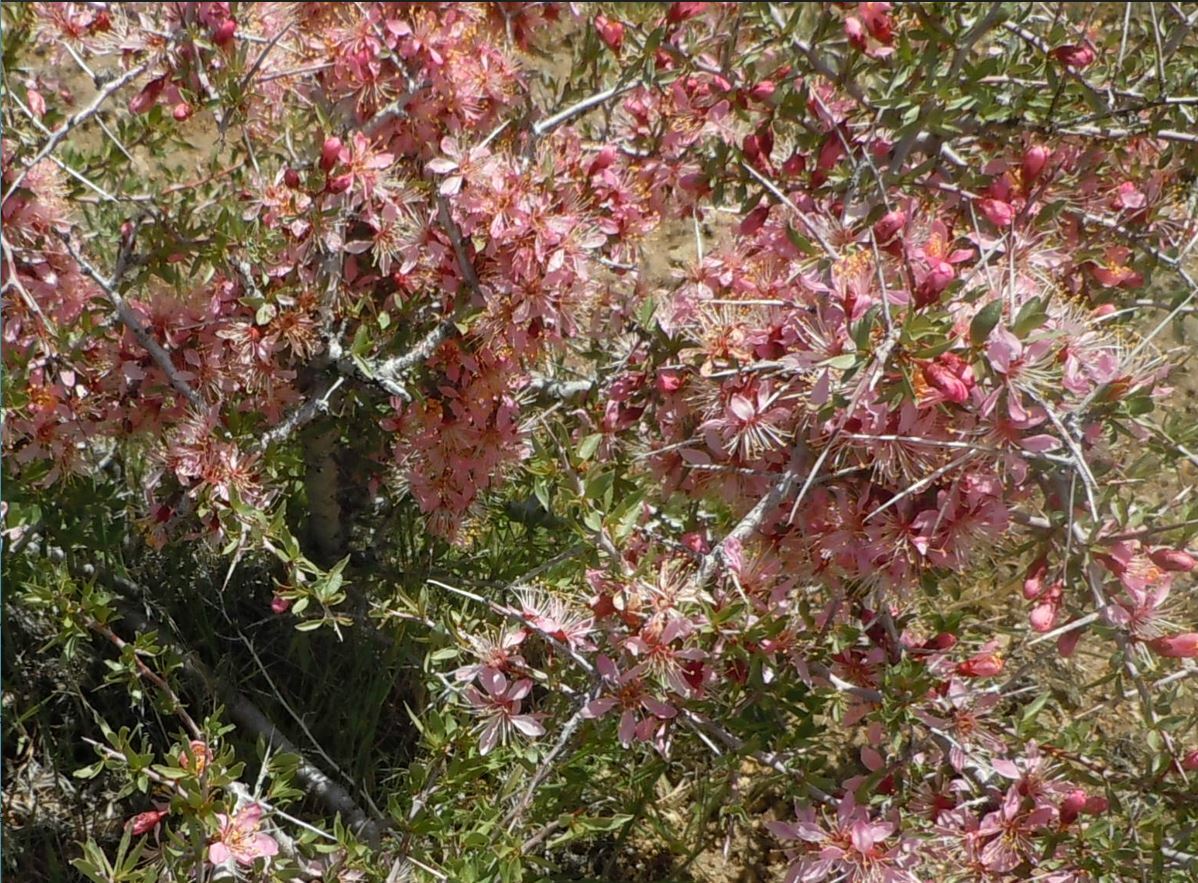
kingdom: Plantae
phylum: Tracheophyta
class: Magnoliopsida
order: Rosales
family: Rosaceae
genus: Prunus
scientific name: Prunus andersonii
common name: Desert peach
